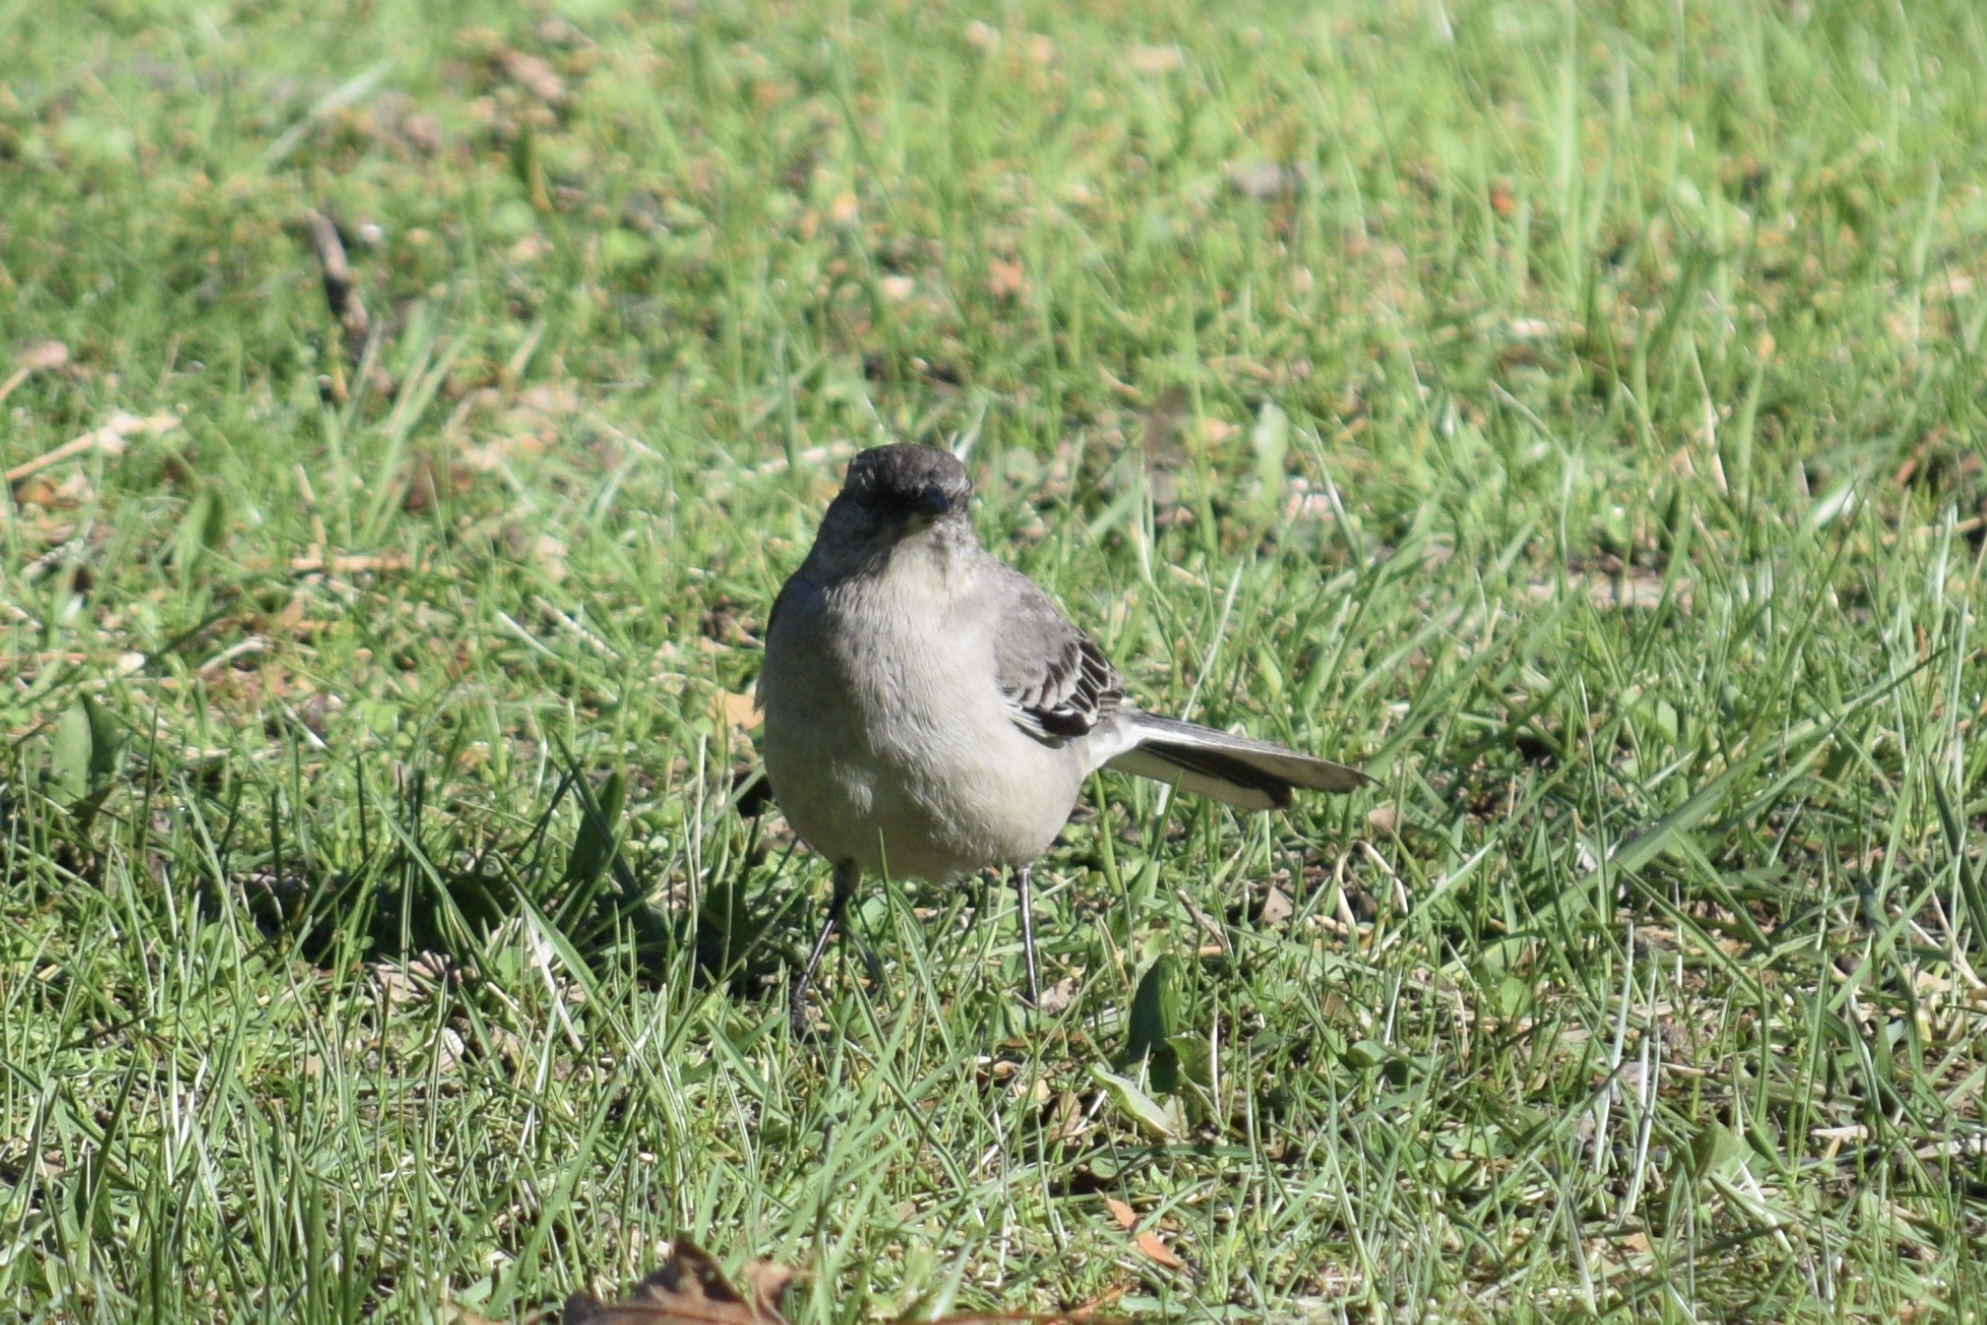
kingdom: Animalia
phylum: Chordata
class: Aves
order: Passeriformes
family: Mimidae
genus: Mimus
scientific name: Mimus polyglottos
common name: Northern mockingbird
